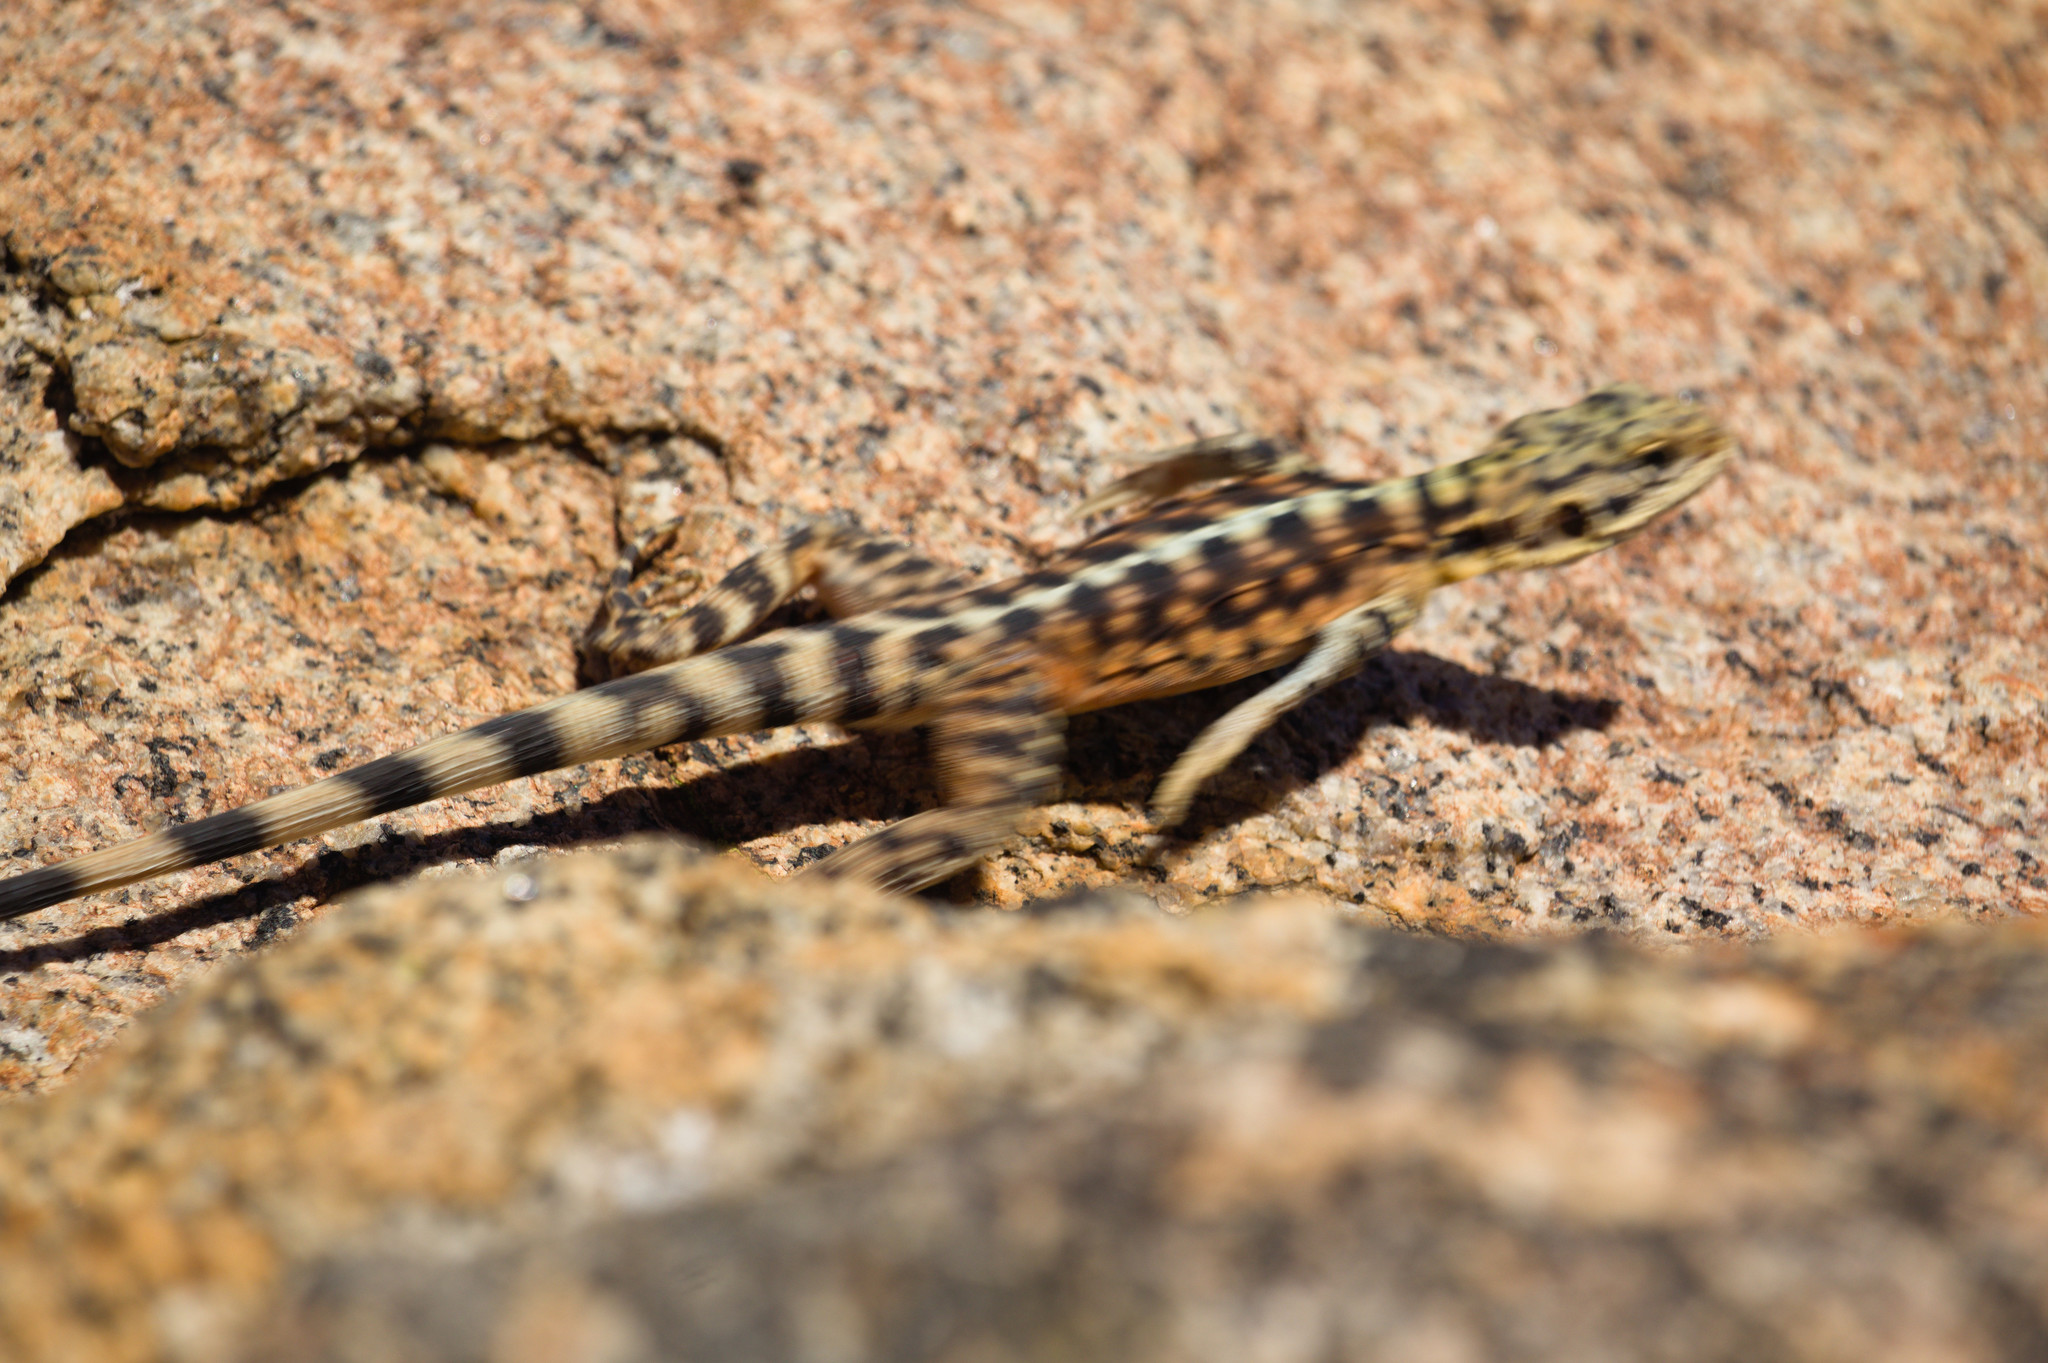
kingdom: Animalia
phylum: Chordata
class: Squamata
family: Agamidae
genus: Ctenophorus
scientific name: Ctenophorus ornatus
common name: Ornate crevice-dragon
